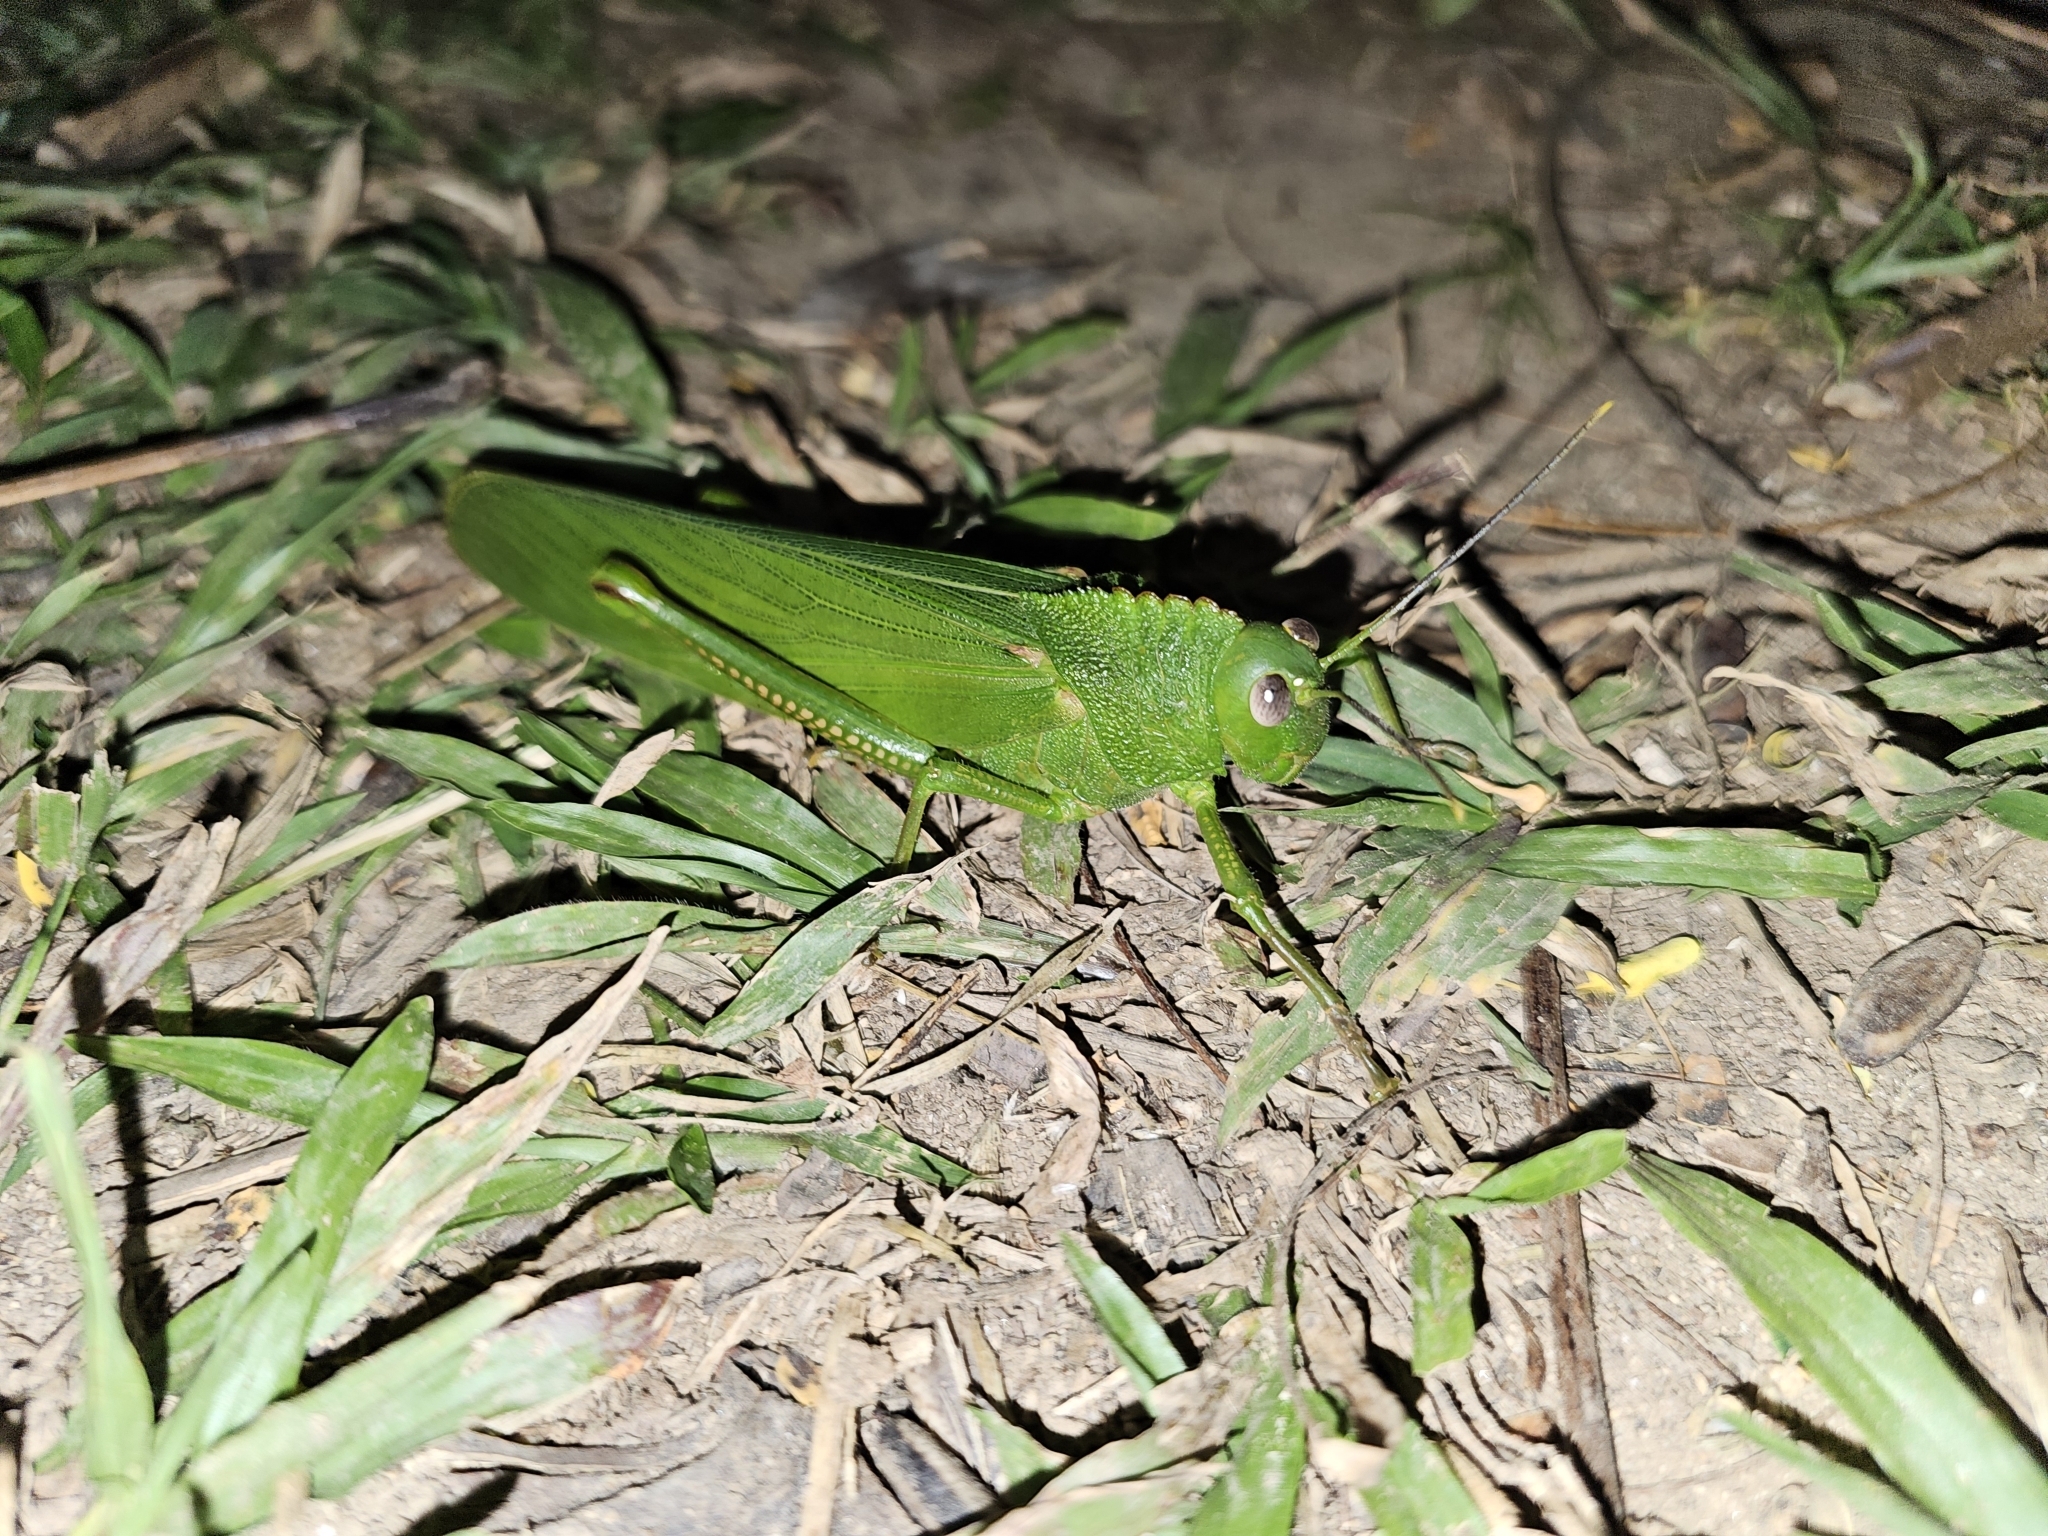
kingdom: Animalia
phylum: Arthropoda
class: Insecta
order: Orthoptera
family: Romaleidae
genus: Titanacris
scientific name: Titanacris velazquezii
